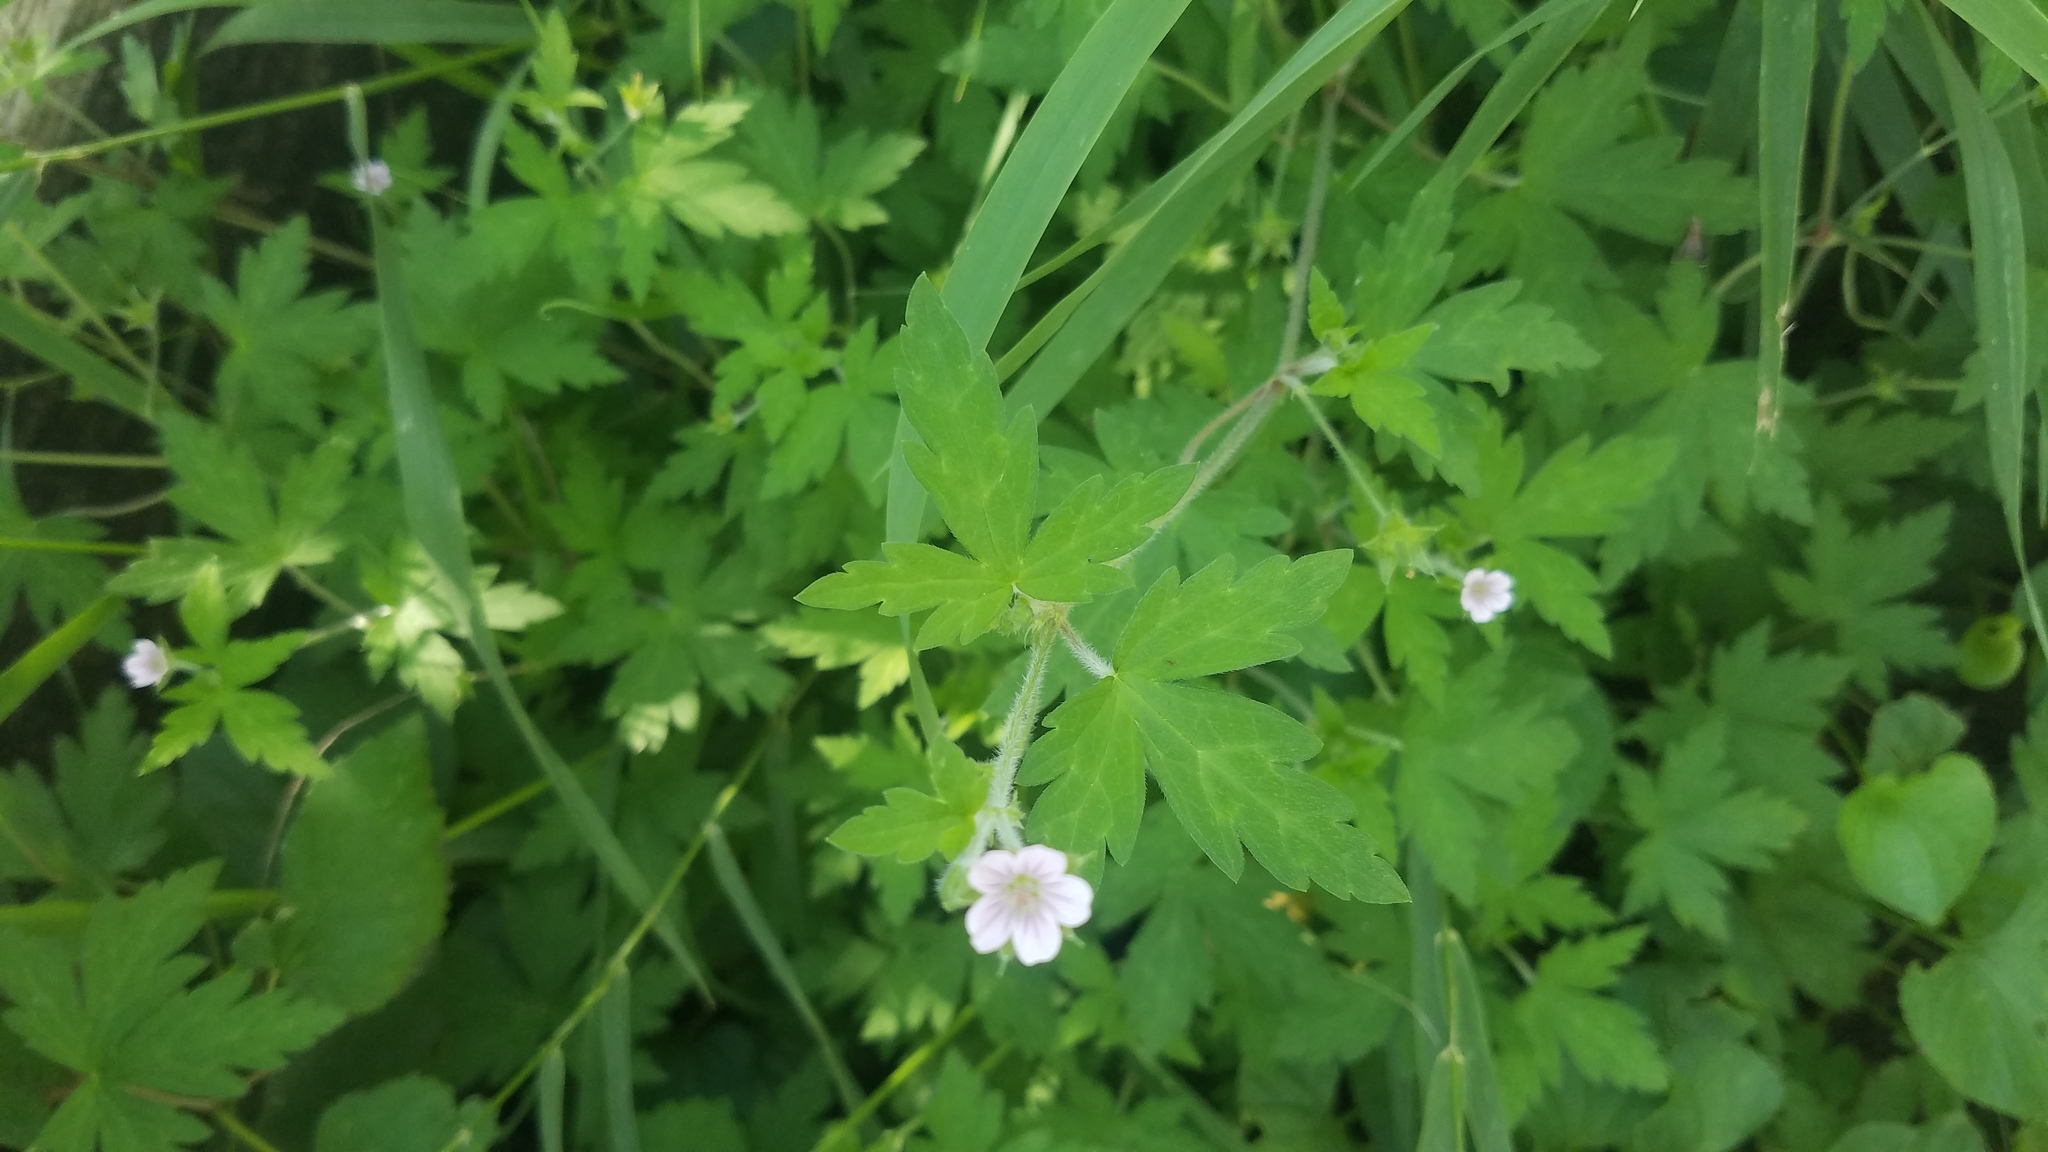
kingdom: Plantae
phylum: Tracheophyta
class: Magnoliopsida
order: Geraniales
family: Geraniaceae
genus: Geranium
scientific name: Geranium sibiricum
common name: Siberian crane's-bill
